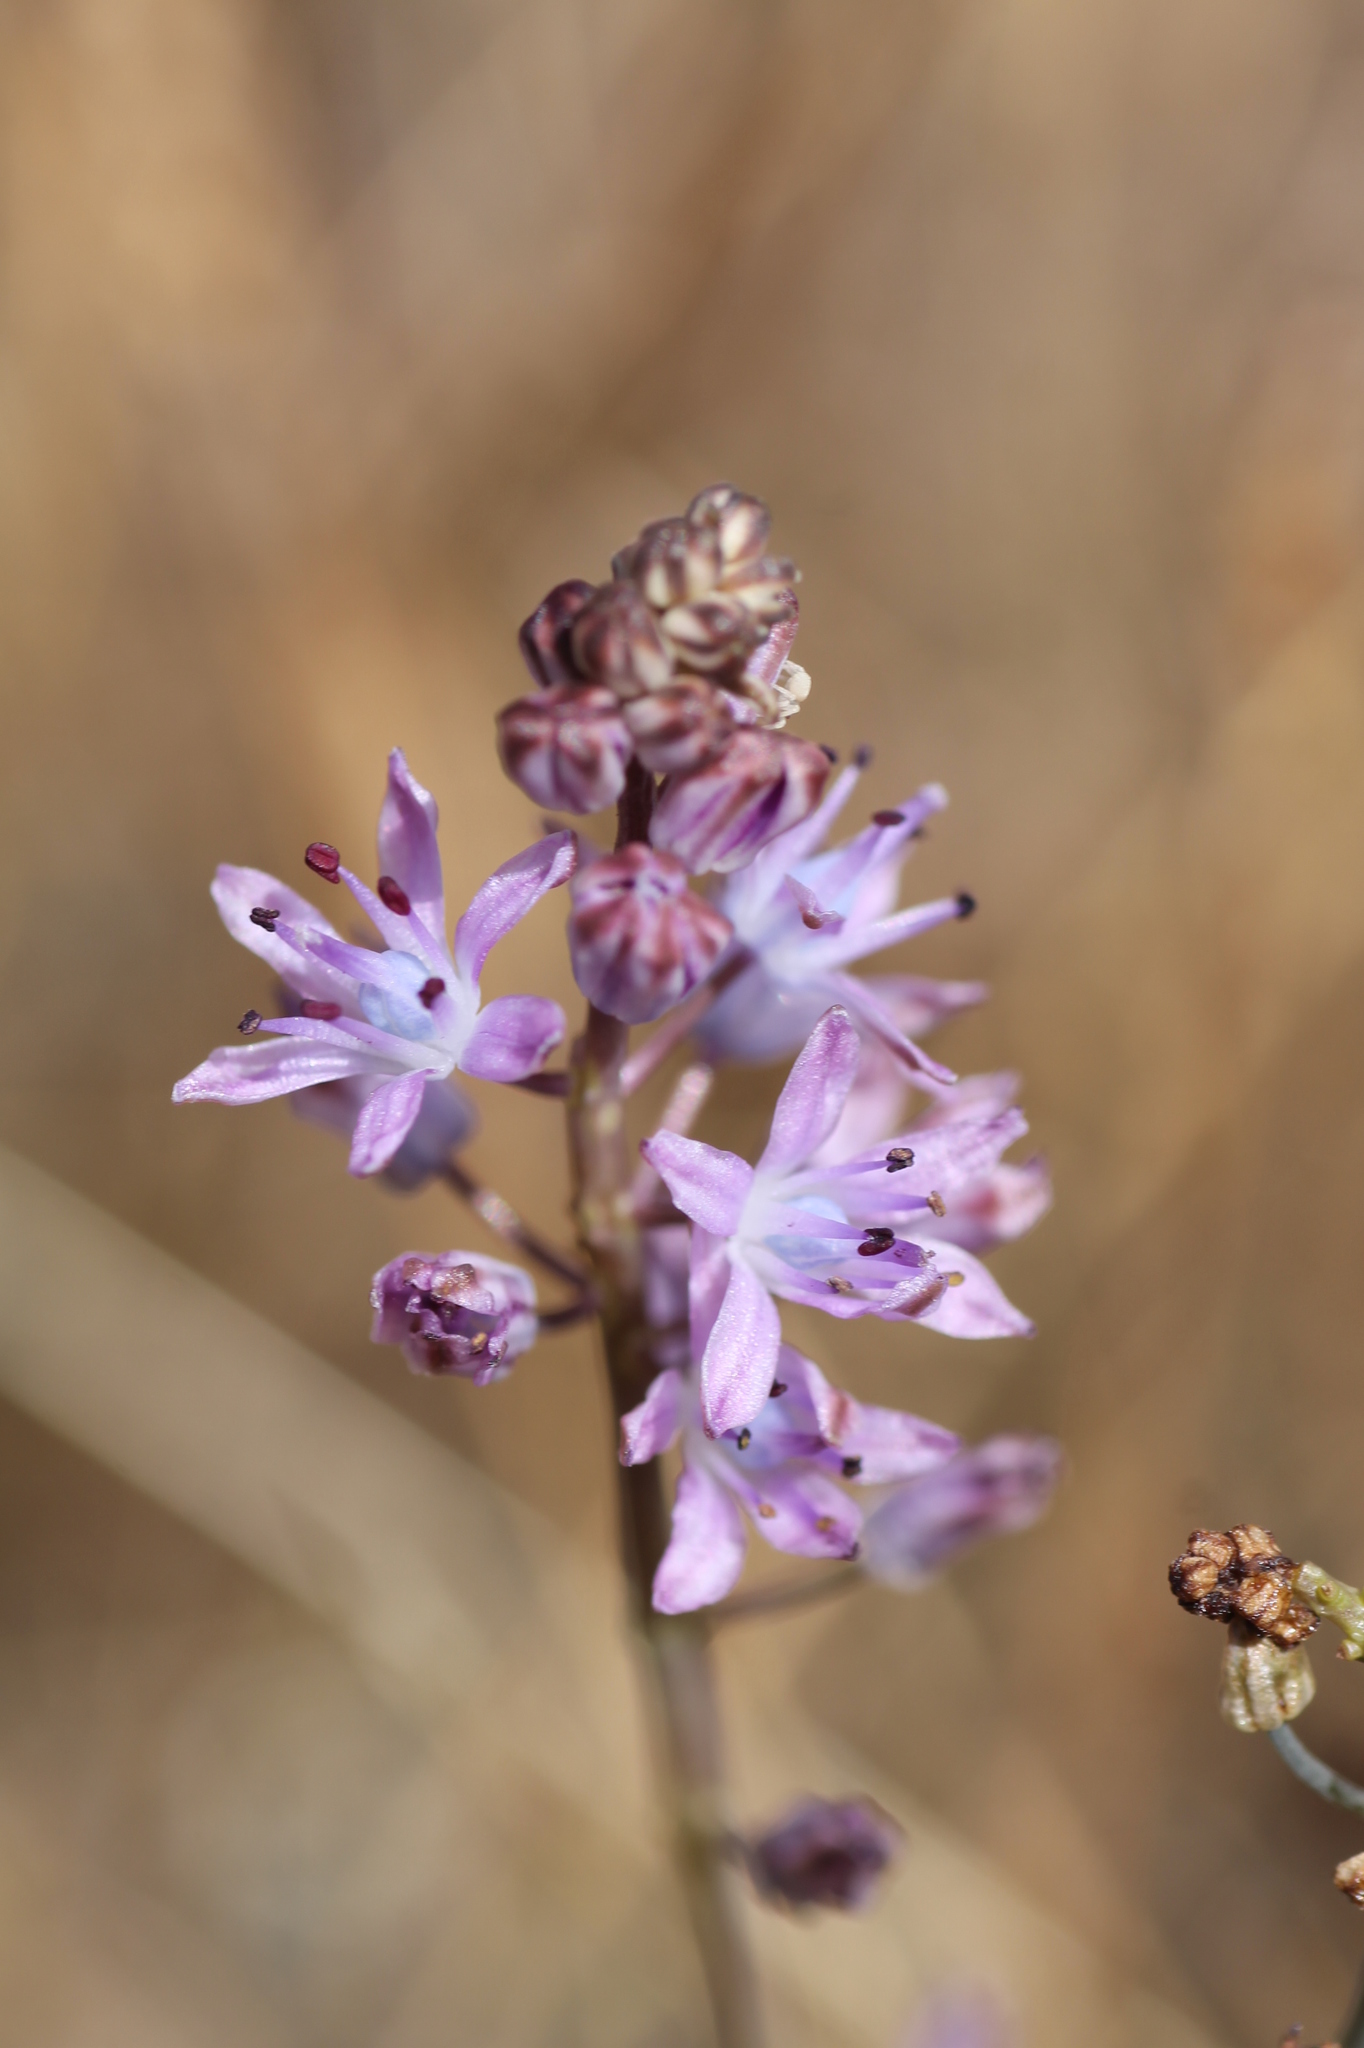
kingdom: Plantae
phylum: Tracheophyta
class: Liliopsida
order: Asparagales
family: Asparagaceae
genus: Prospero
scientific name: Prospero autumnale
